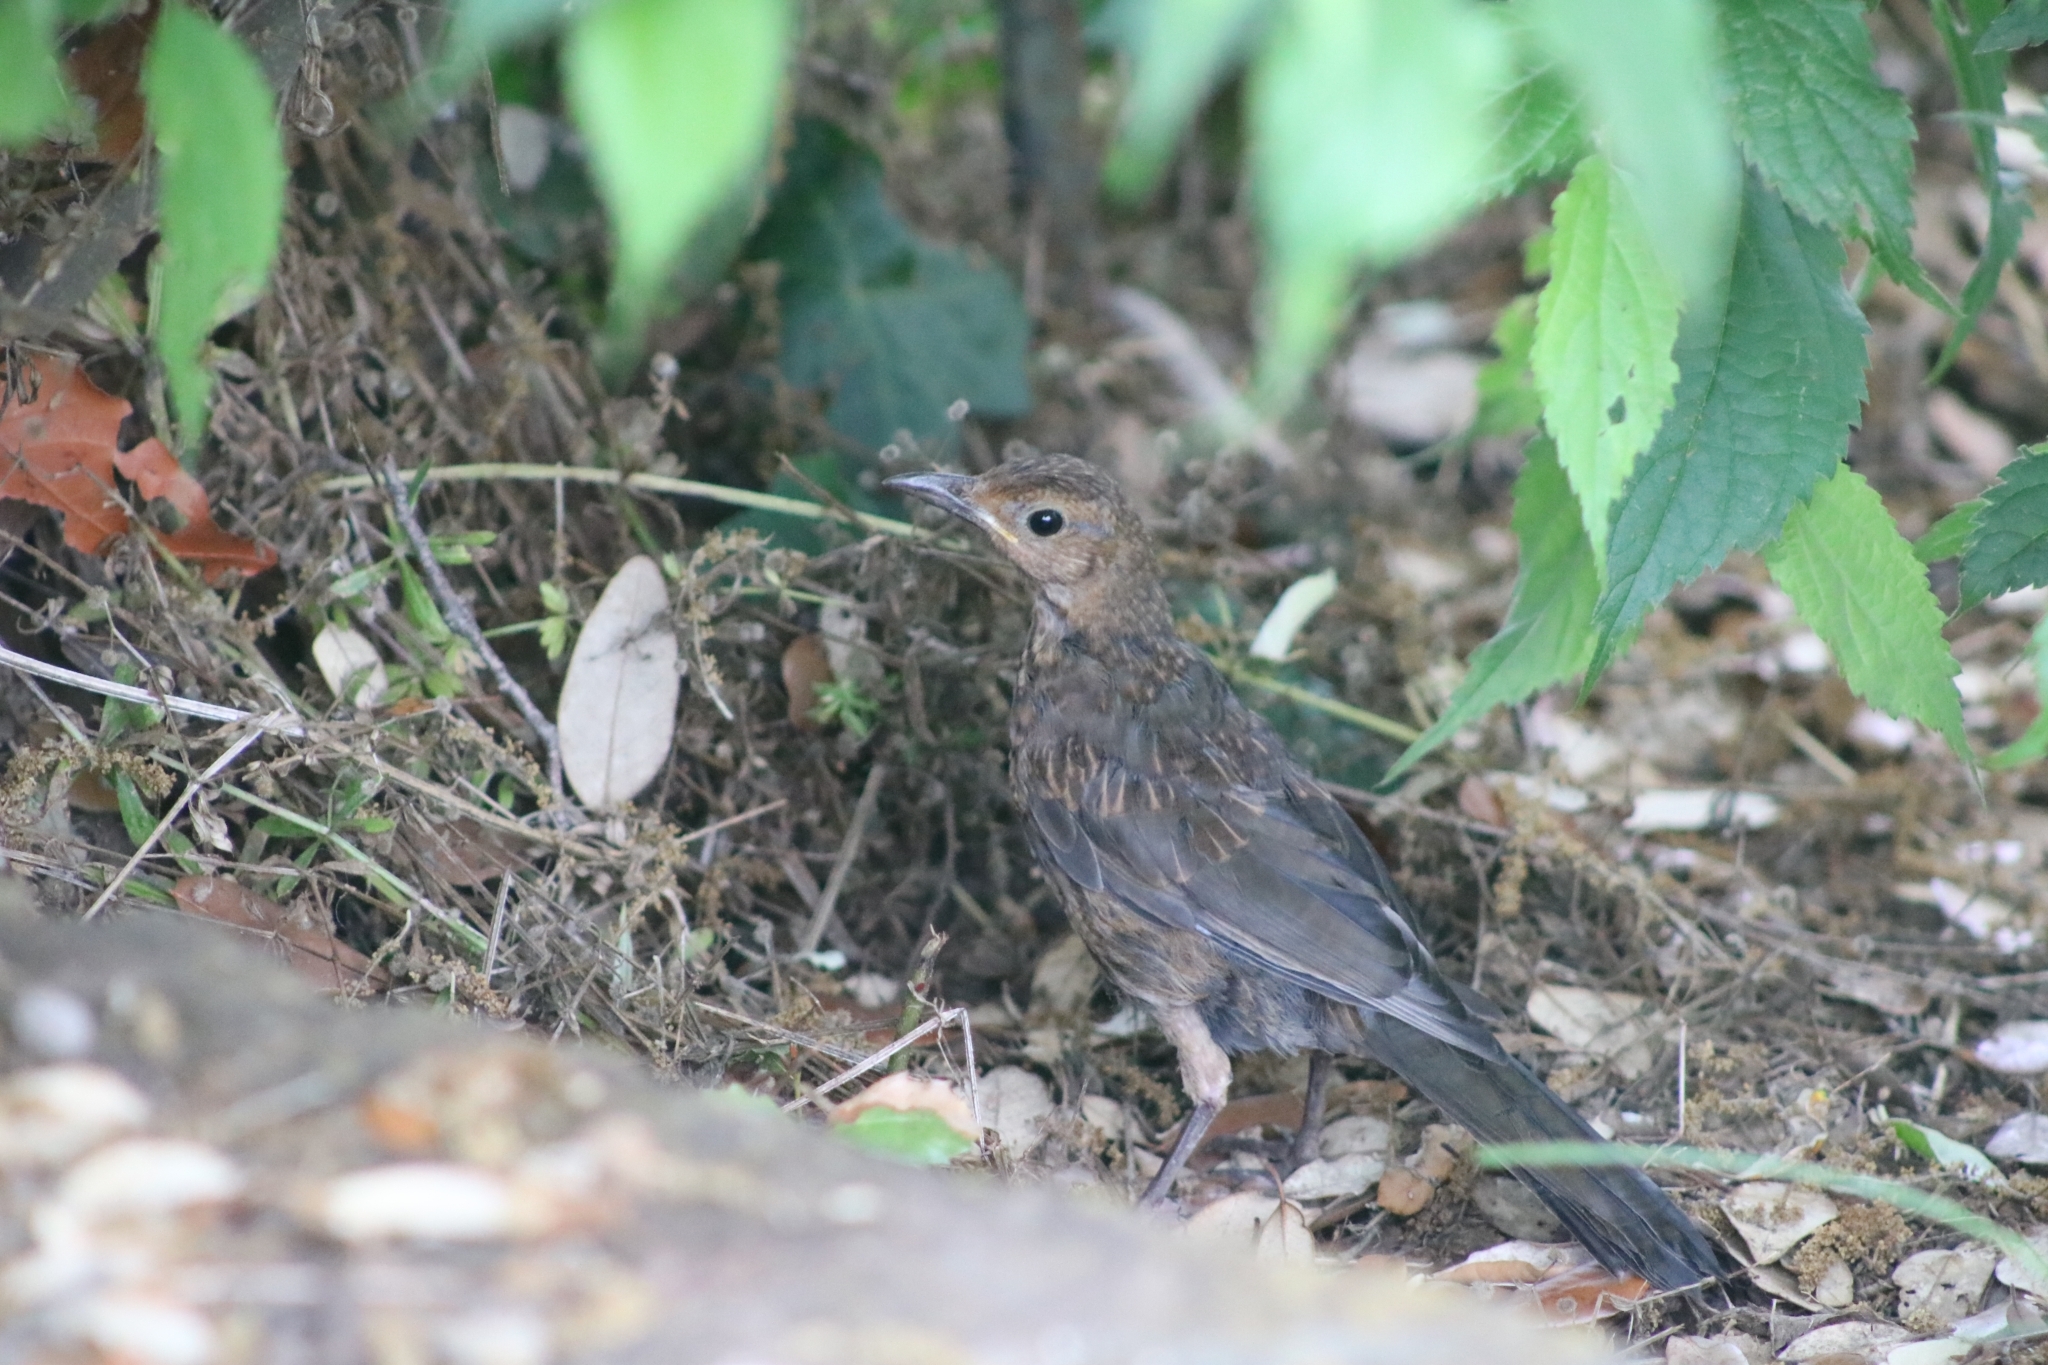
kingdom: Animalia
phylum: Chordata
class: Aves
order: Passeriformes
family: Turdidae
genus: Turdus
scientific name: Turdus merula
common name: Common blackbird
